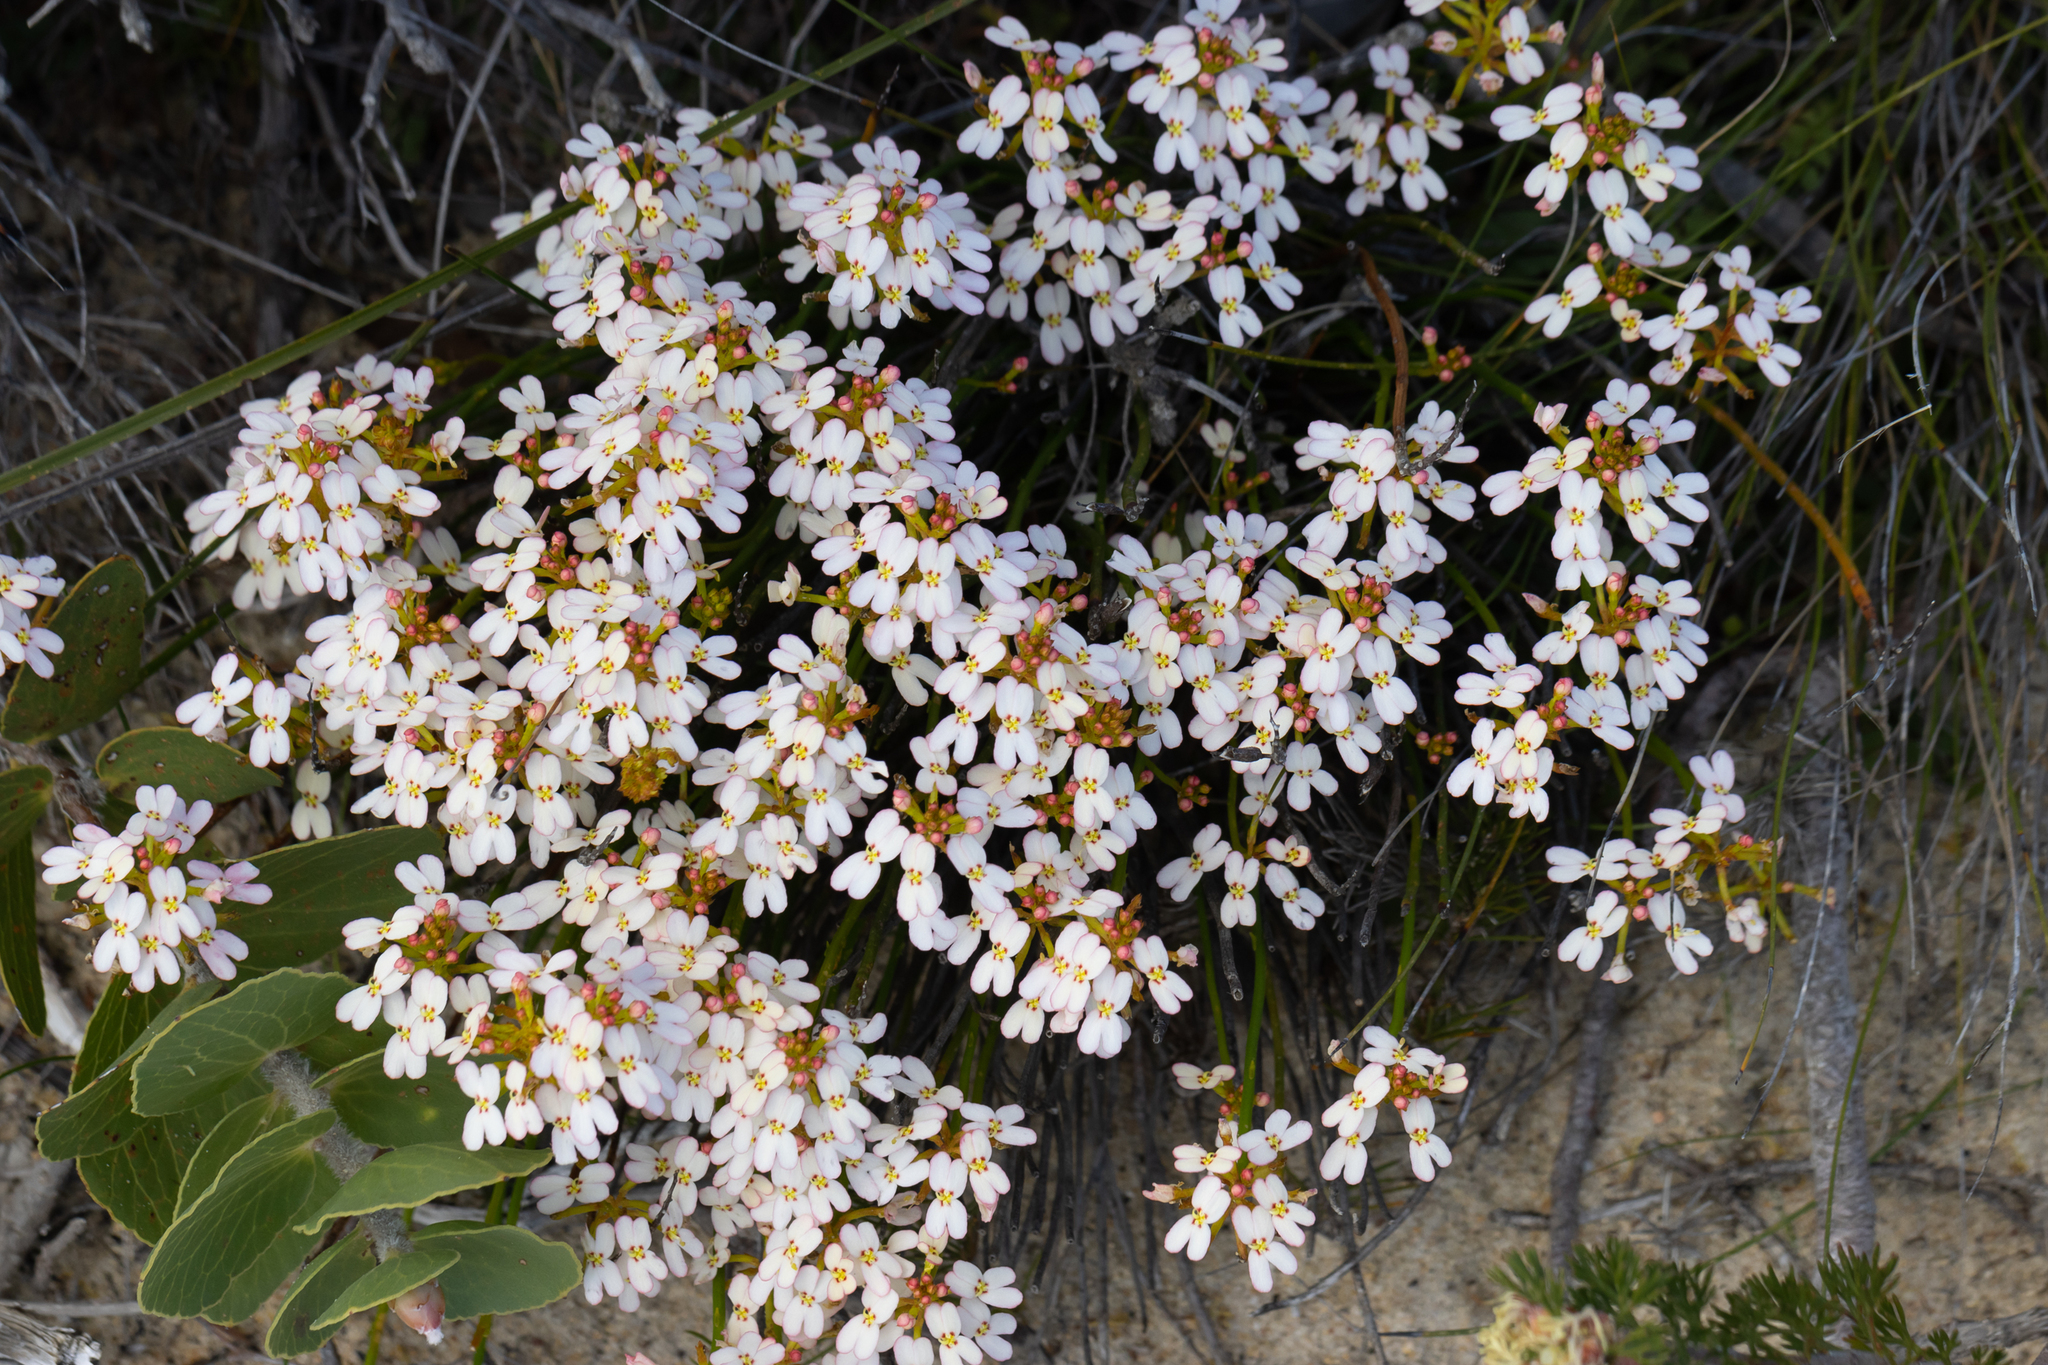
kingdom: Plantae
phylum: Tracheophyta
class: Magnoliopsida
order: Asterales
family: Stylidiaceae
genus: Stylidium
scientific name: Stylidium junceum
